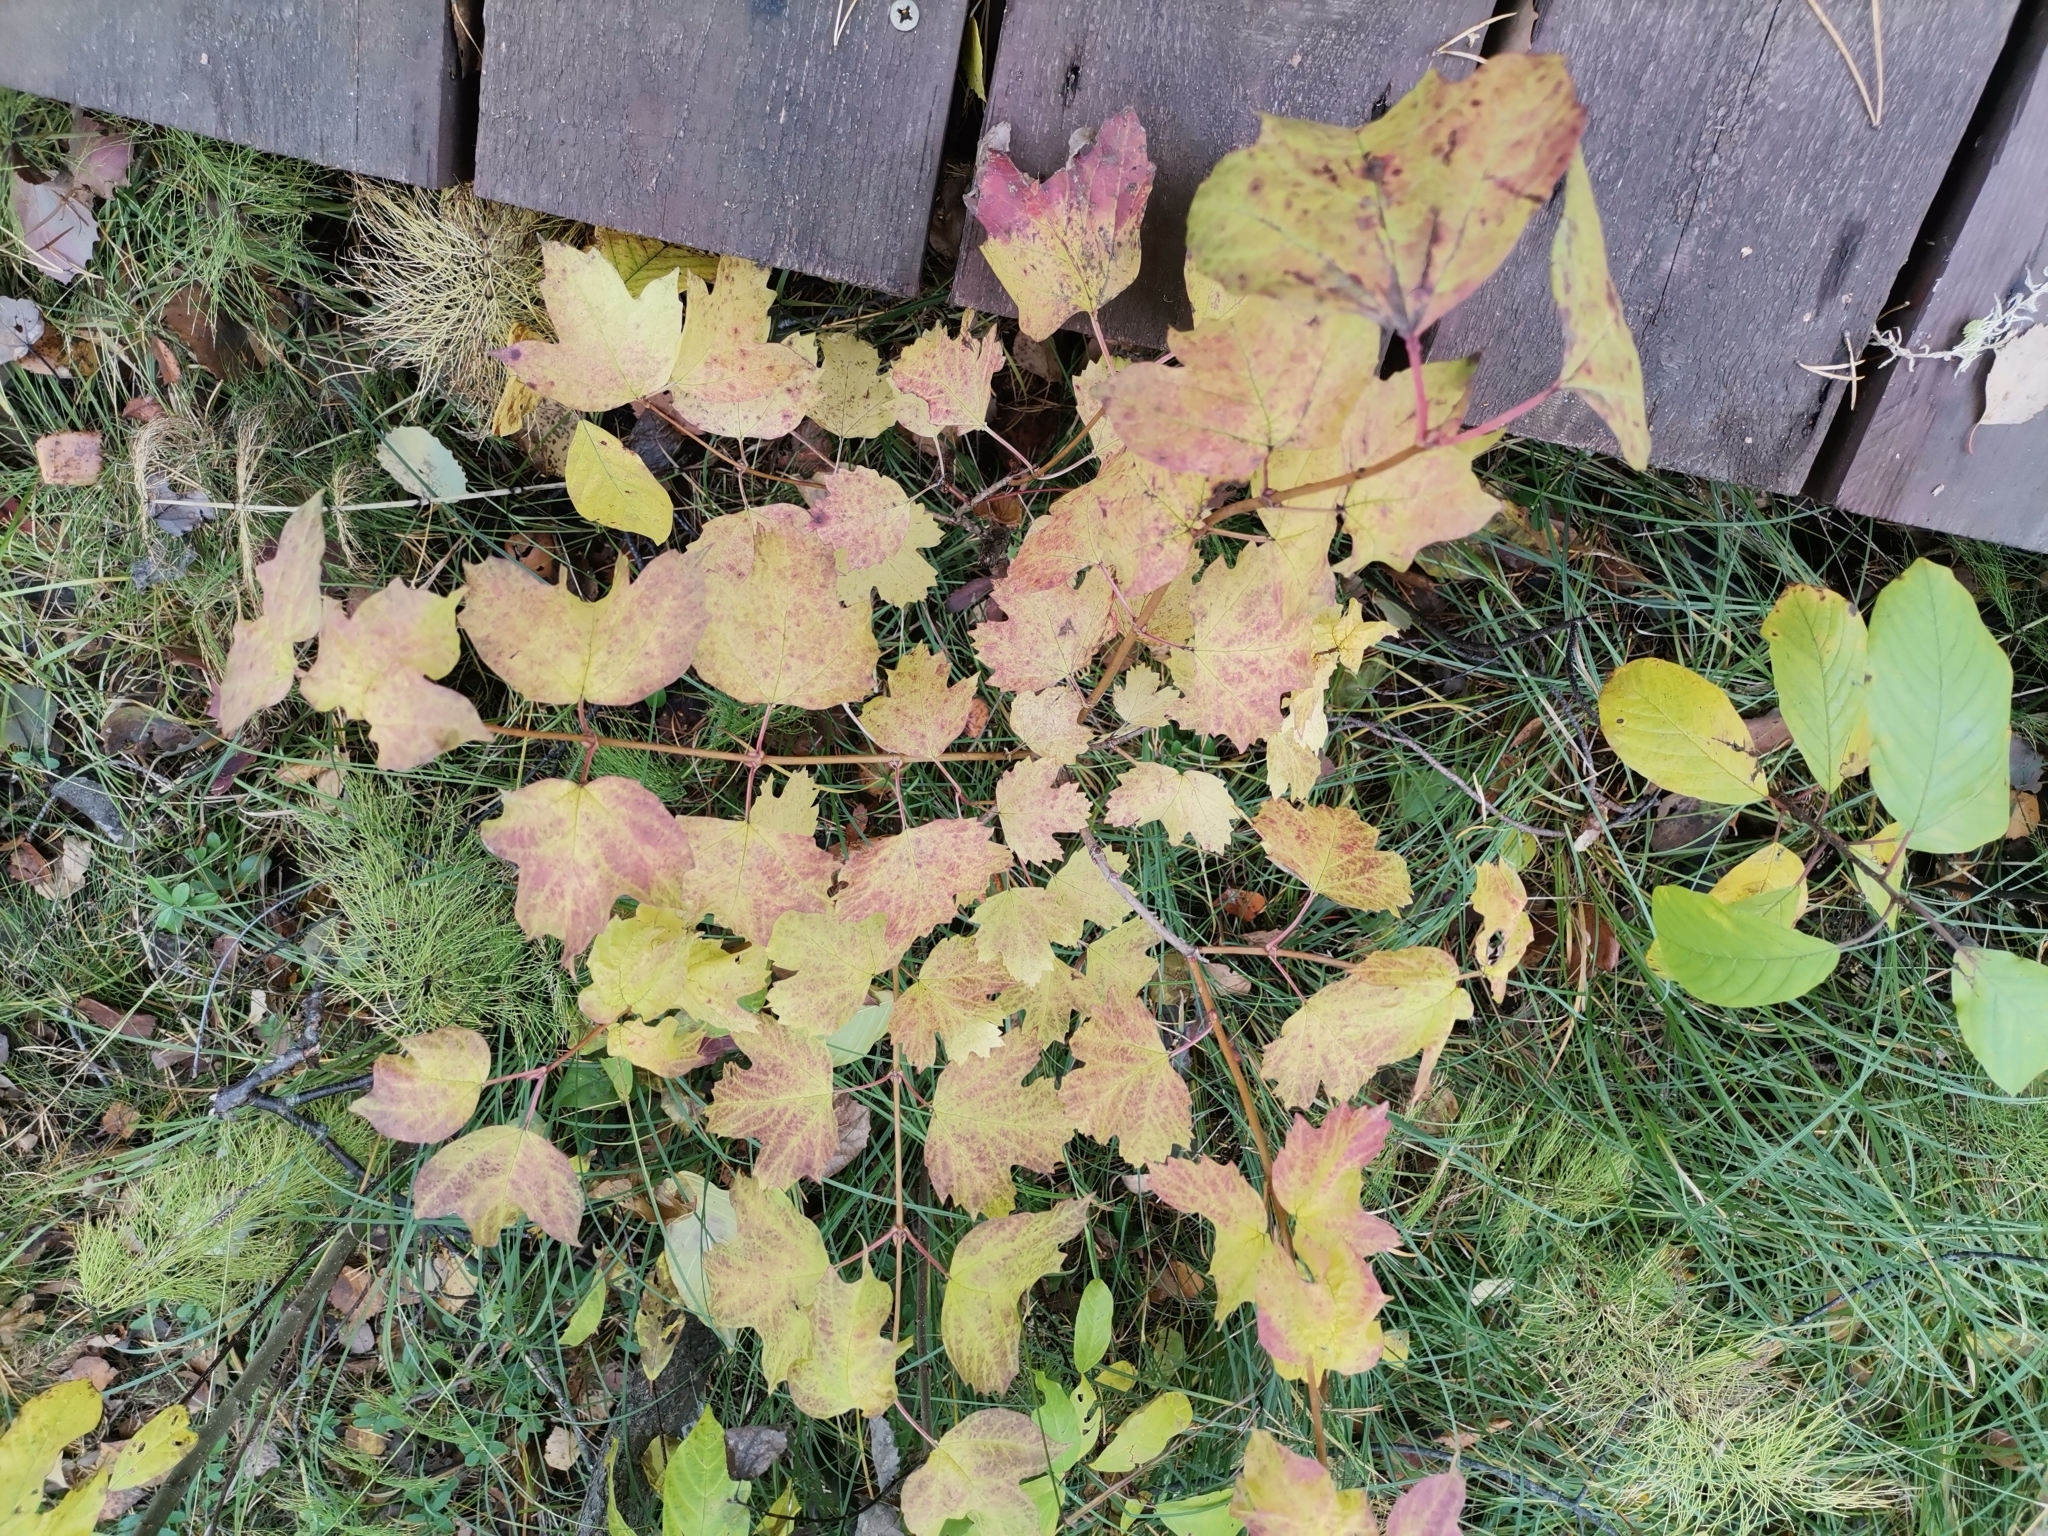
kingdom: Plantae
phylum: Tracheophyta
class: Magnoliopsida
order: Dipsacales
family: Viburnaceae
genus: Viburnum
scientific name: Viburnum opulus
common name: Guelder-rose
